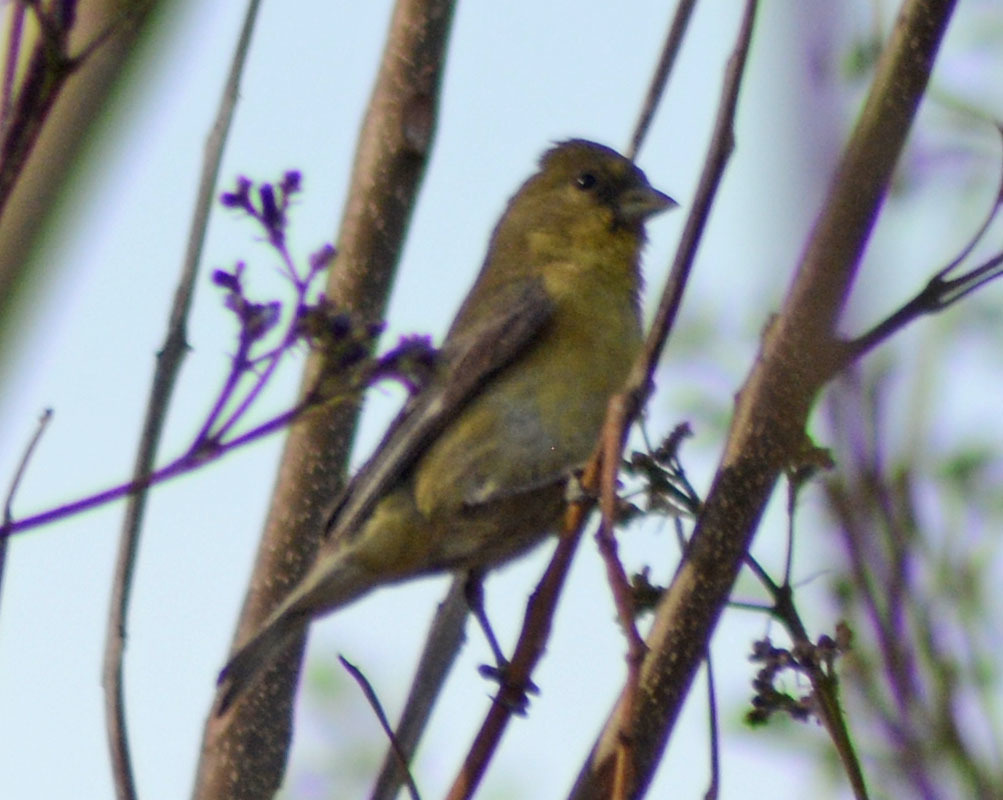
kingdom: Animalia
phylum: Chordata
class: Aves
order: Passeriformes
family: Fringillidae
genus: Spinus
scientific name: Spinus psaltria
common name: Lesser goldfinch
